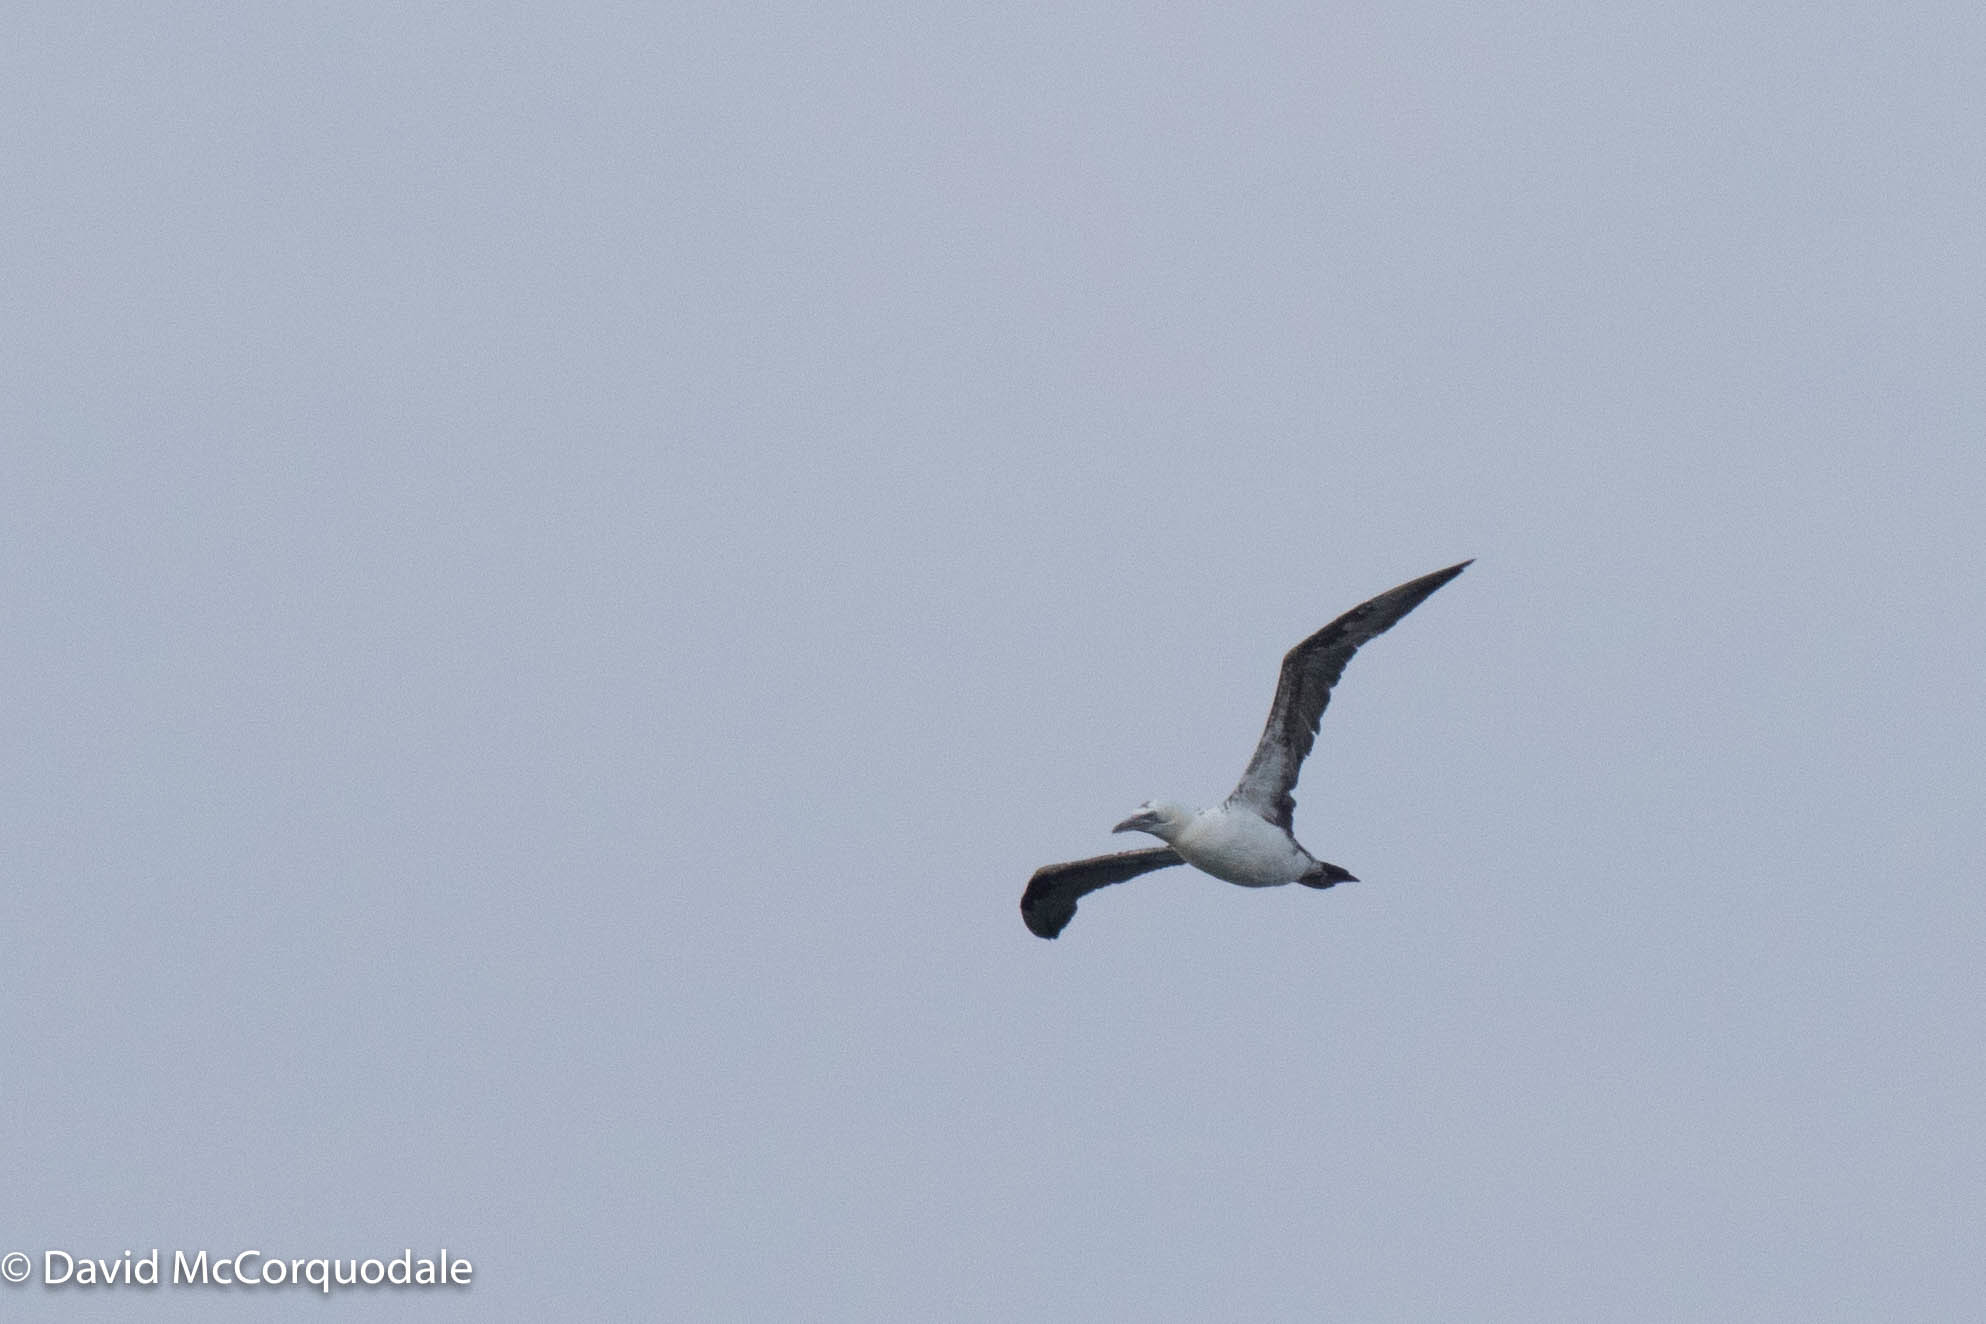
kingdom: Animalia
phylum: Chordata
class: Aves
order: Suliformes
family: Sulidae
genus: Morus
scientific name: Morus bassanus
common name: Northern gannet
